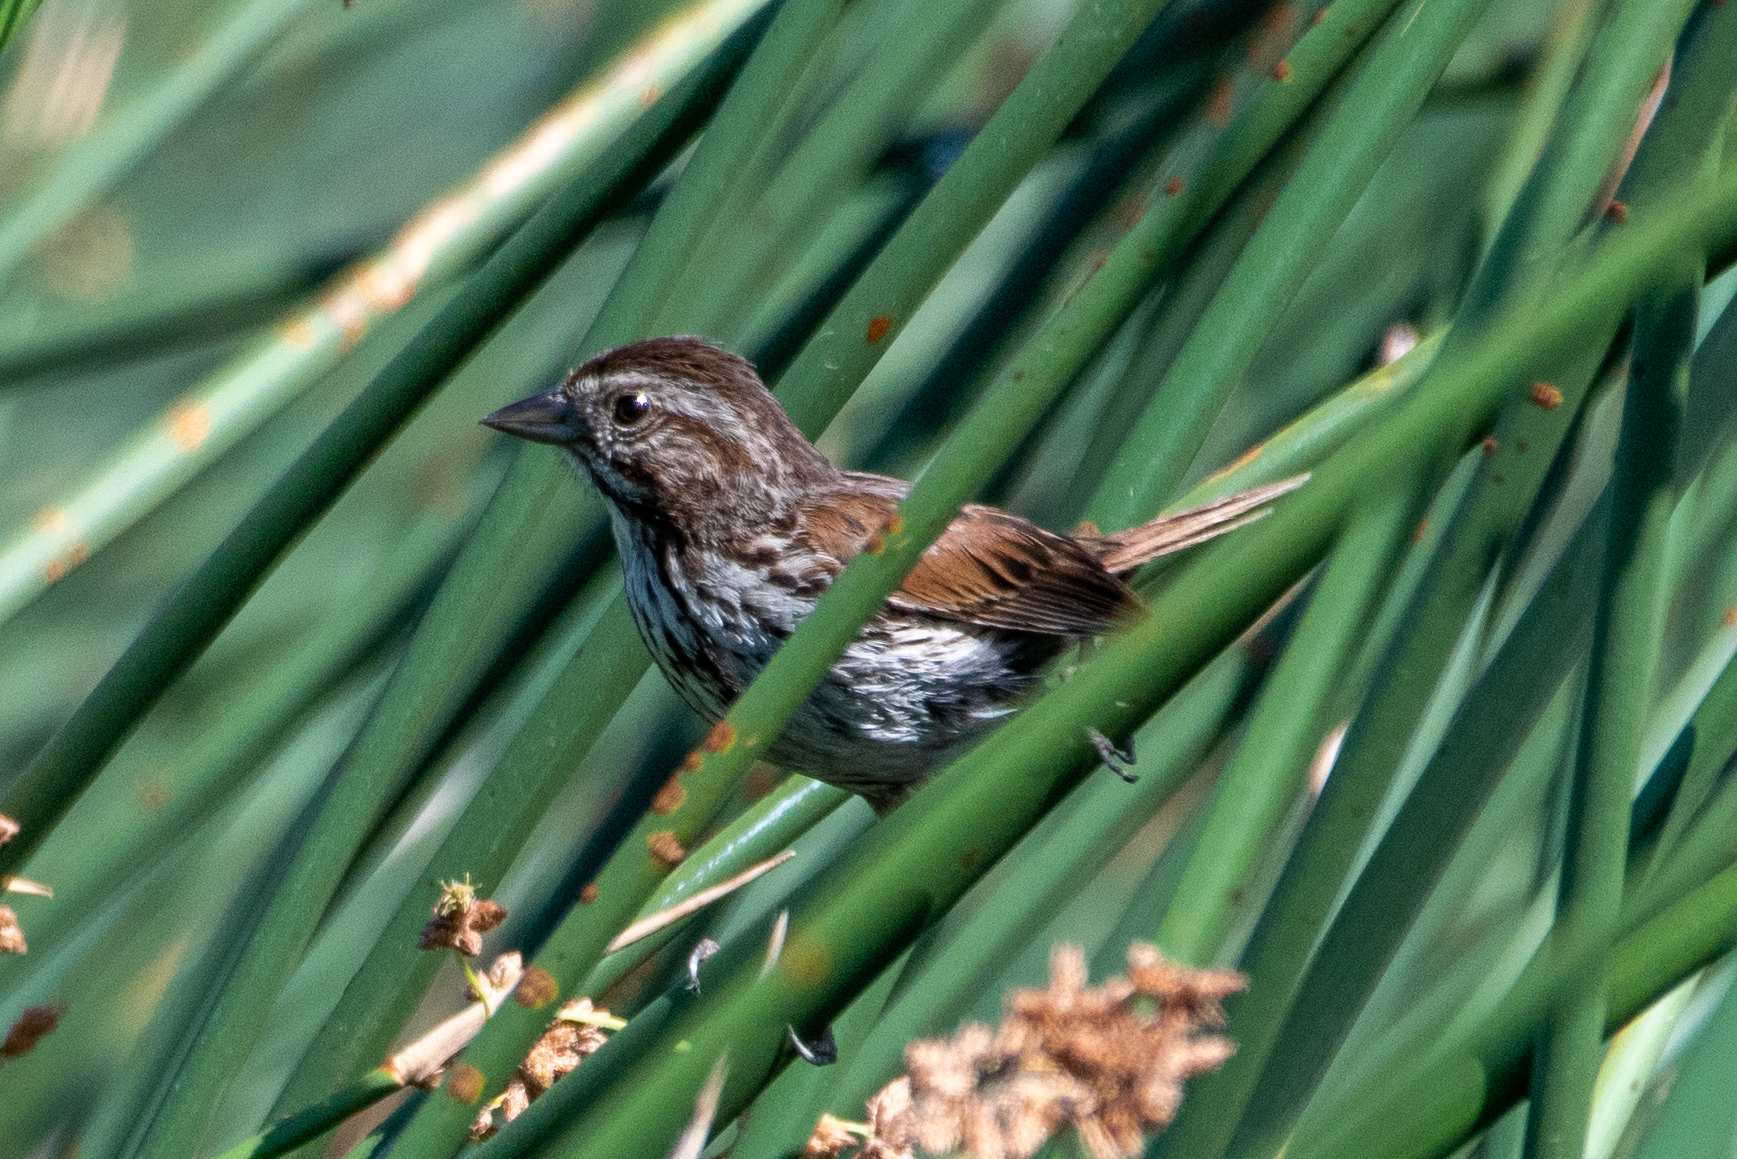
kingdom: Animalia
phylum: Chordata
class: Aves
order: Passeriformes
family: Passerellidae
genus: Melospiza
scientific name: Melospiza melodia
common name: Song sparrow
